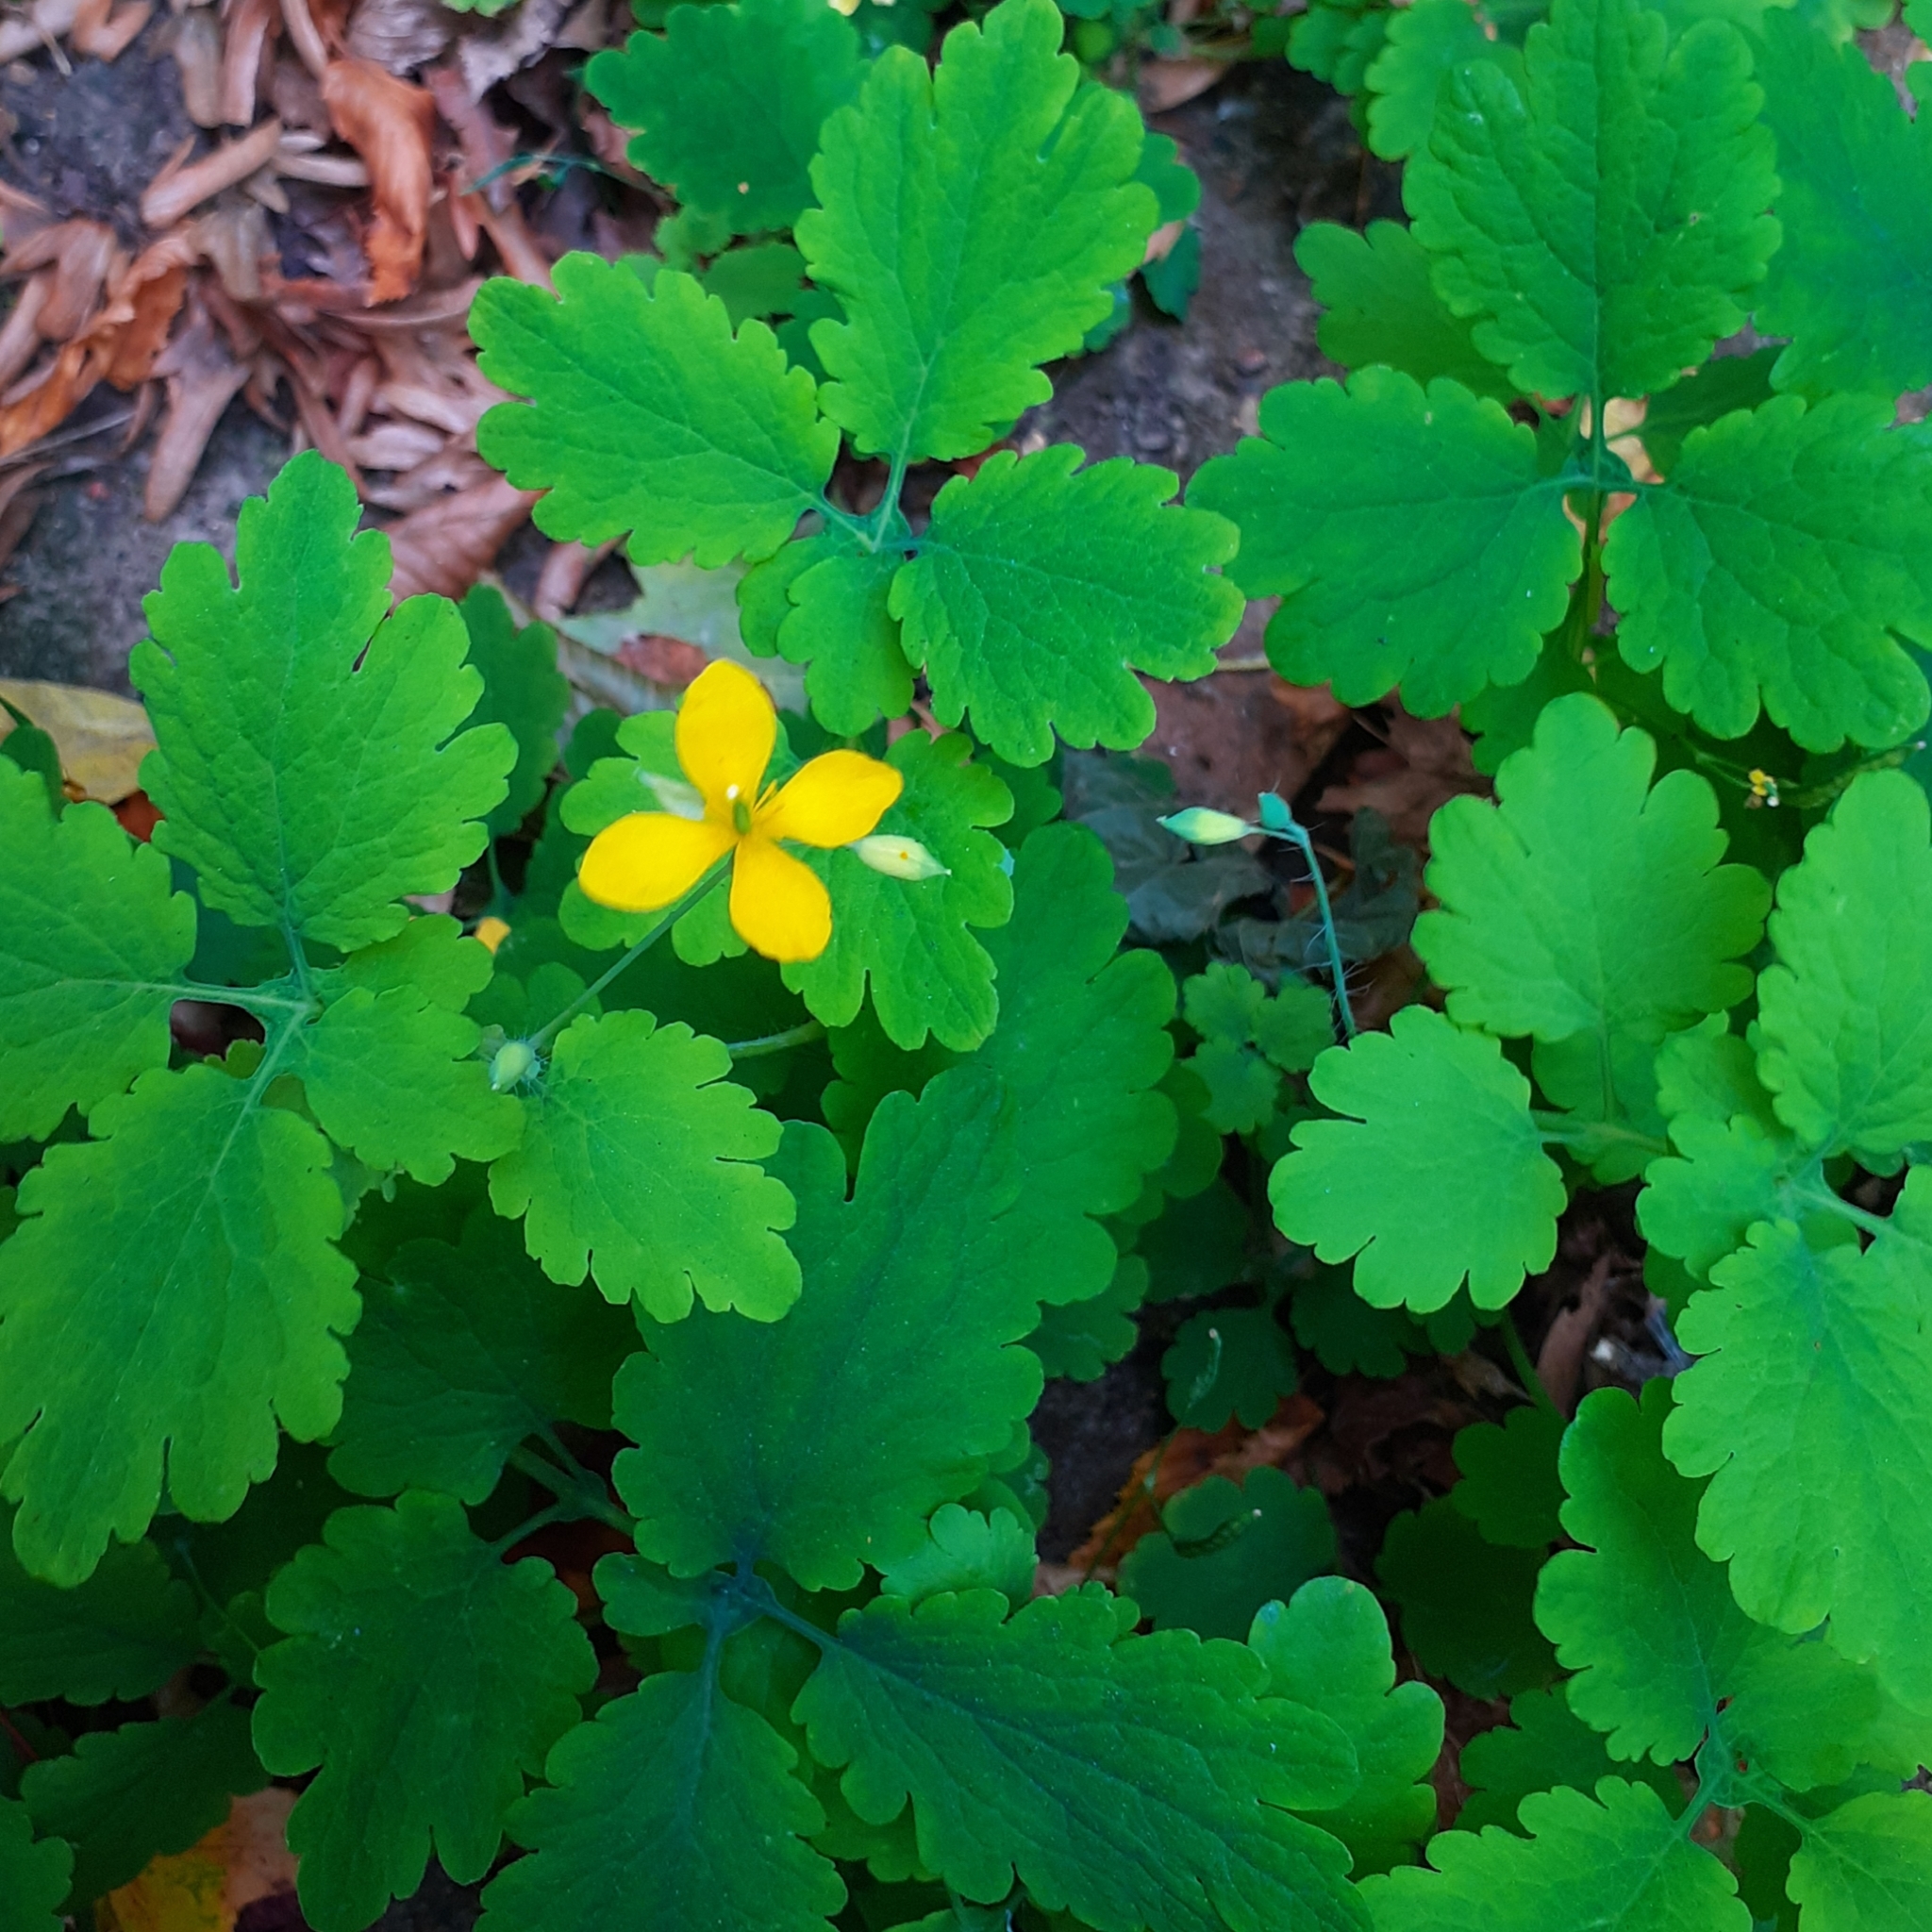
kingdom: Plantae
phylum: Tracheophyta
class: Magnoliopsida
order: Ranunculales
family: Papaveraceae
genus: Chelidonium
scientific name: Chelidonium majus
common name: Greater celandine
